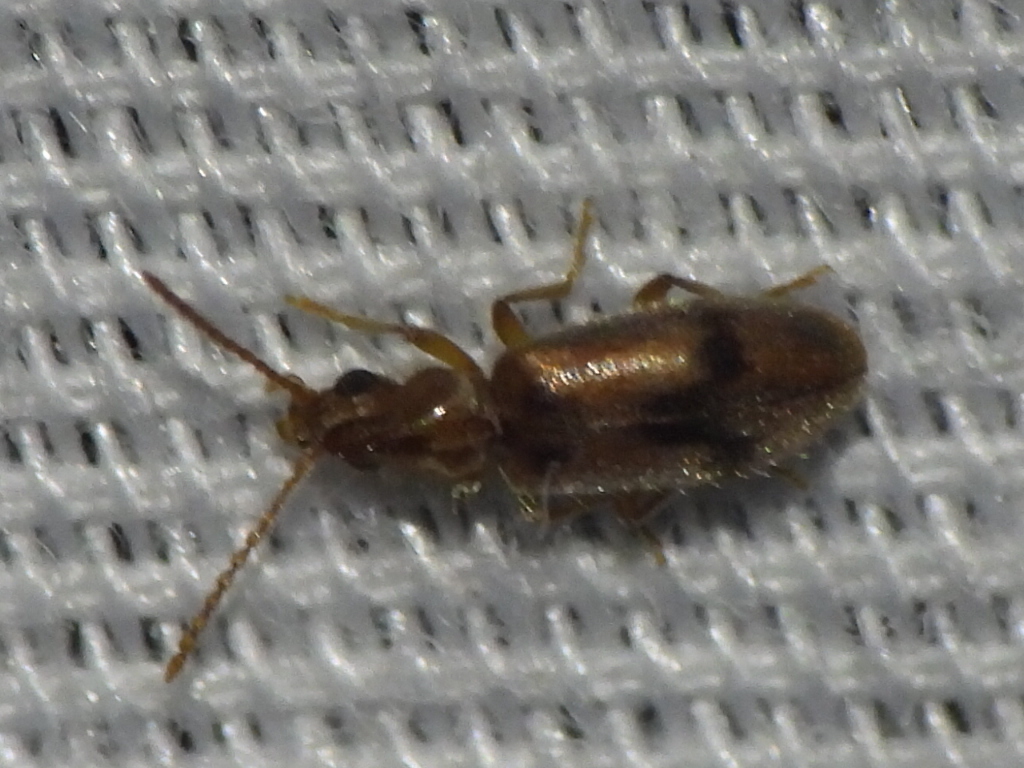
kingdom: Animalia
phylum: Arthropoda
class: Insecta
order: Coleoptera
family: Anthicidae
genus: Notoxus
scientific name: Notoxus monodon
